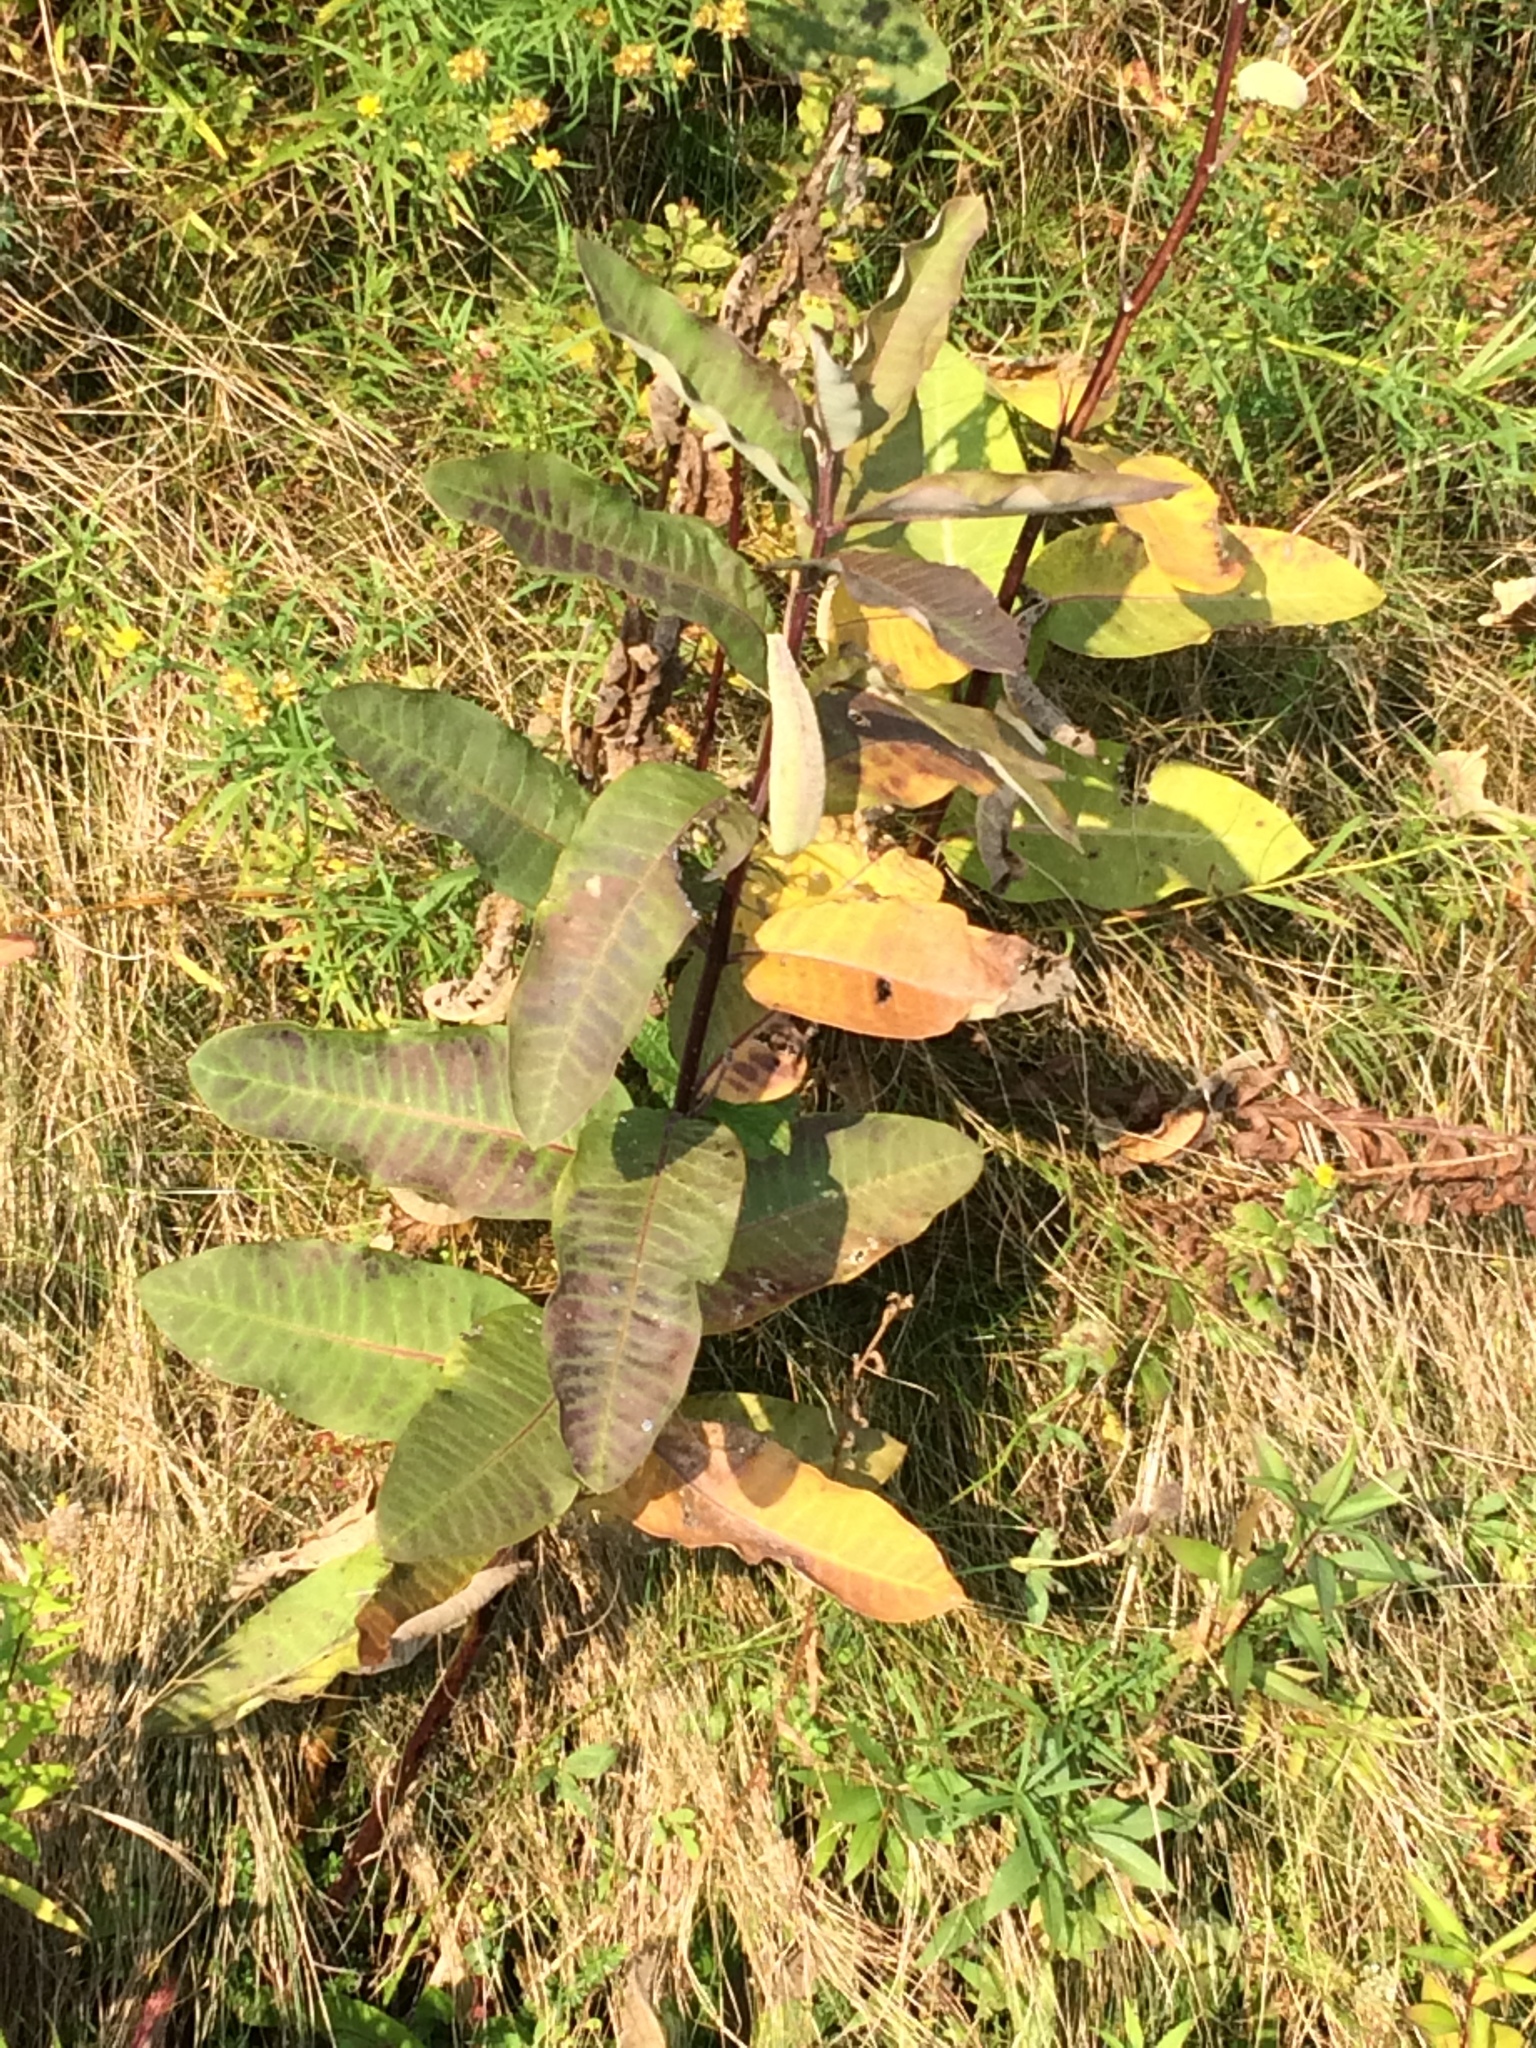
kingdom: Plantae
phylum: Tracheophyta
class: Magnoliopsida
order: Gentianales
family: Apocynaceae
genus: Asclepias
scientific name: Asclepias syriaca
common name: Common milkweed
